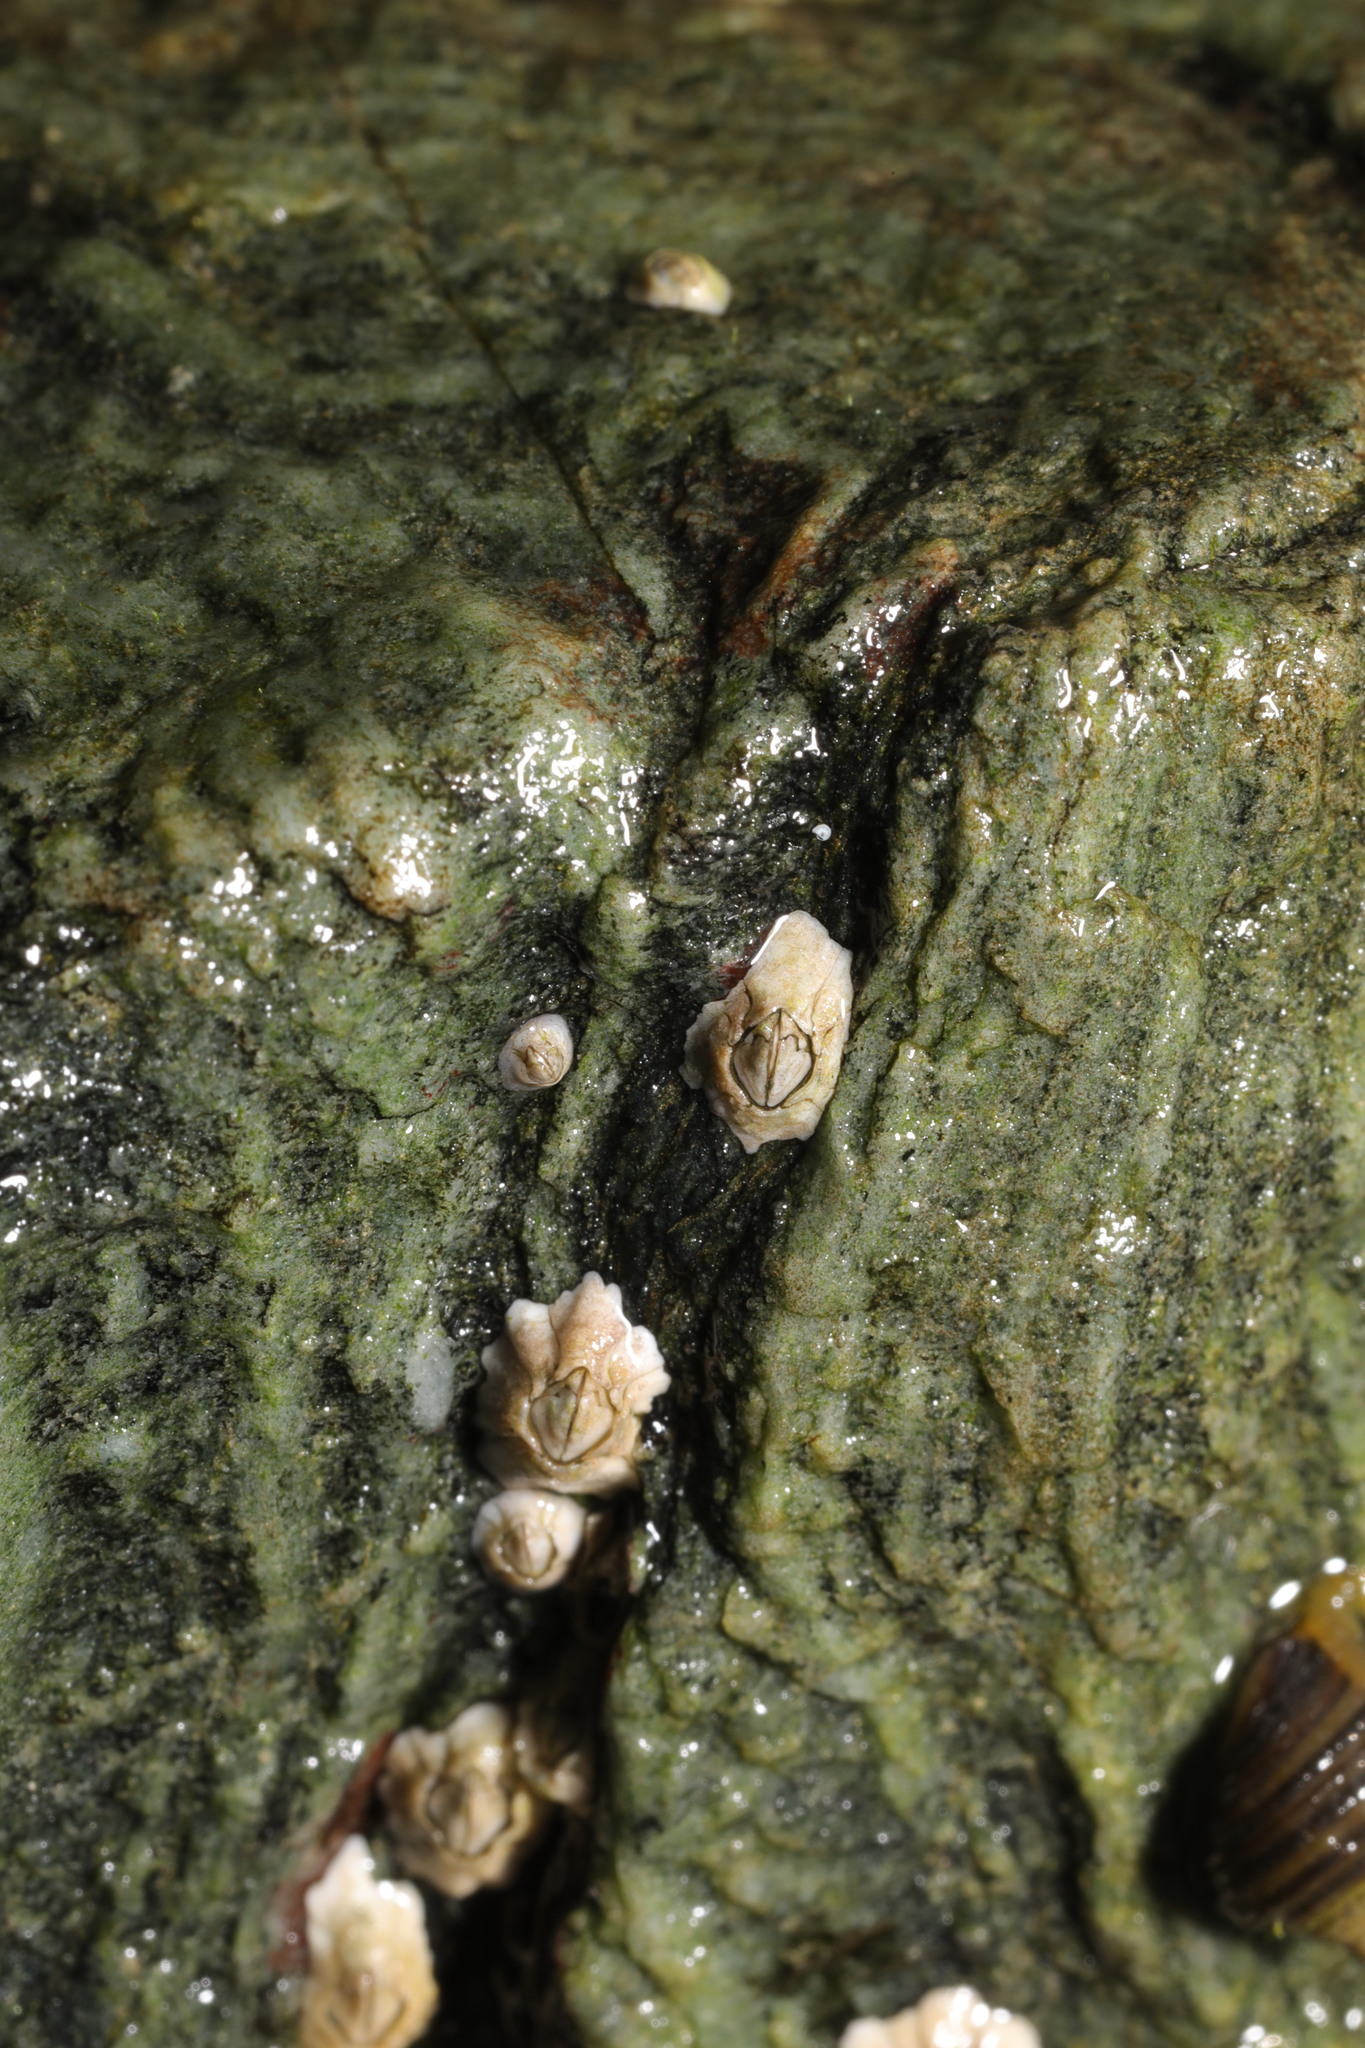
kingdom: Animalia
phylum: Arthropoda
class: Maxillopoda
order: Sessilia
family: Archaeobalanidae
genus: Semibalanus
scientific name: Semibalanus balanoides
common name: Acorn barnacle
